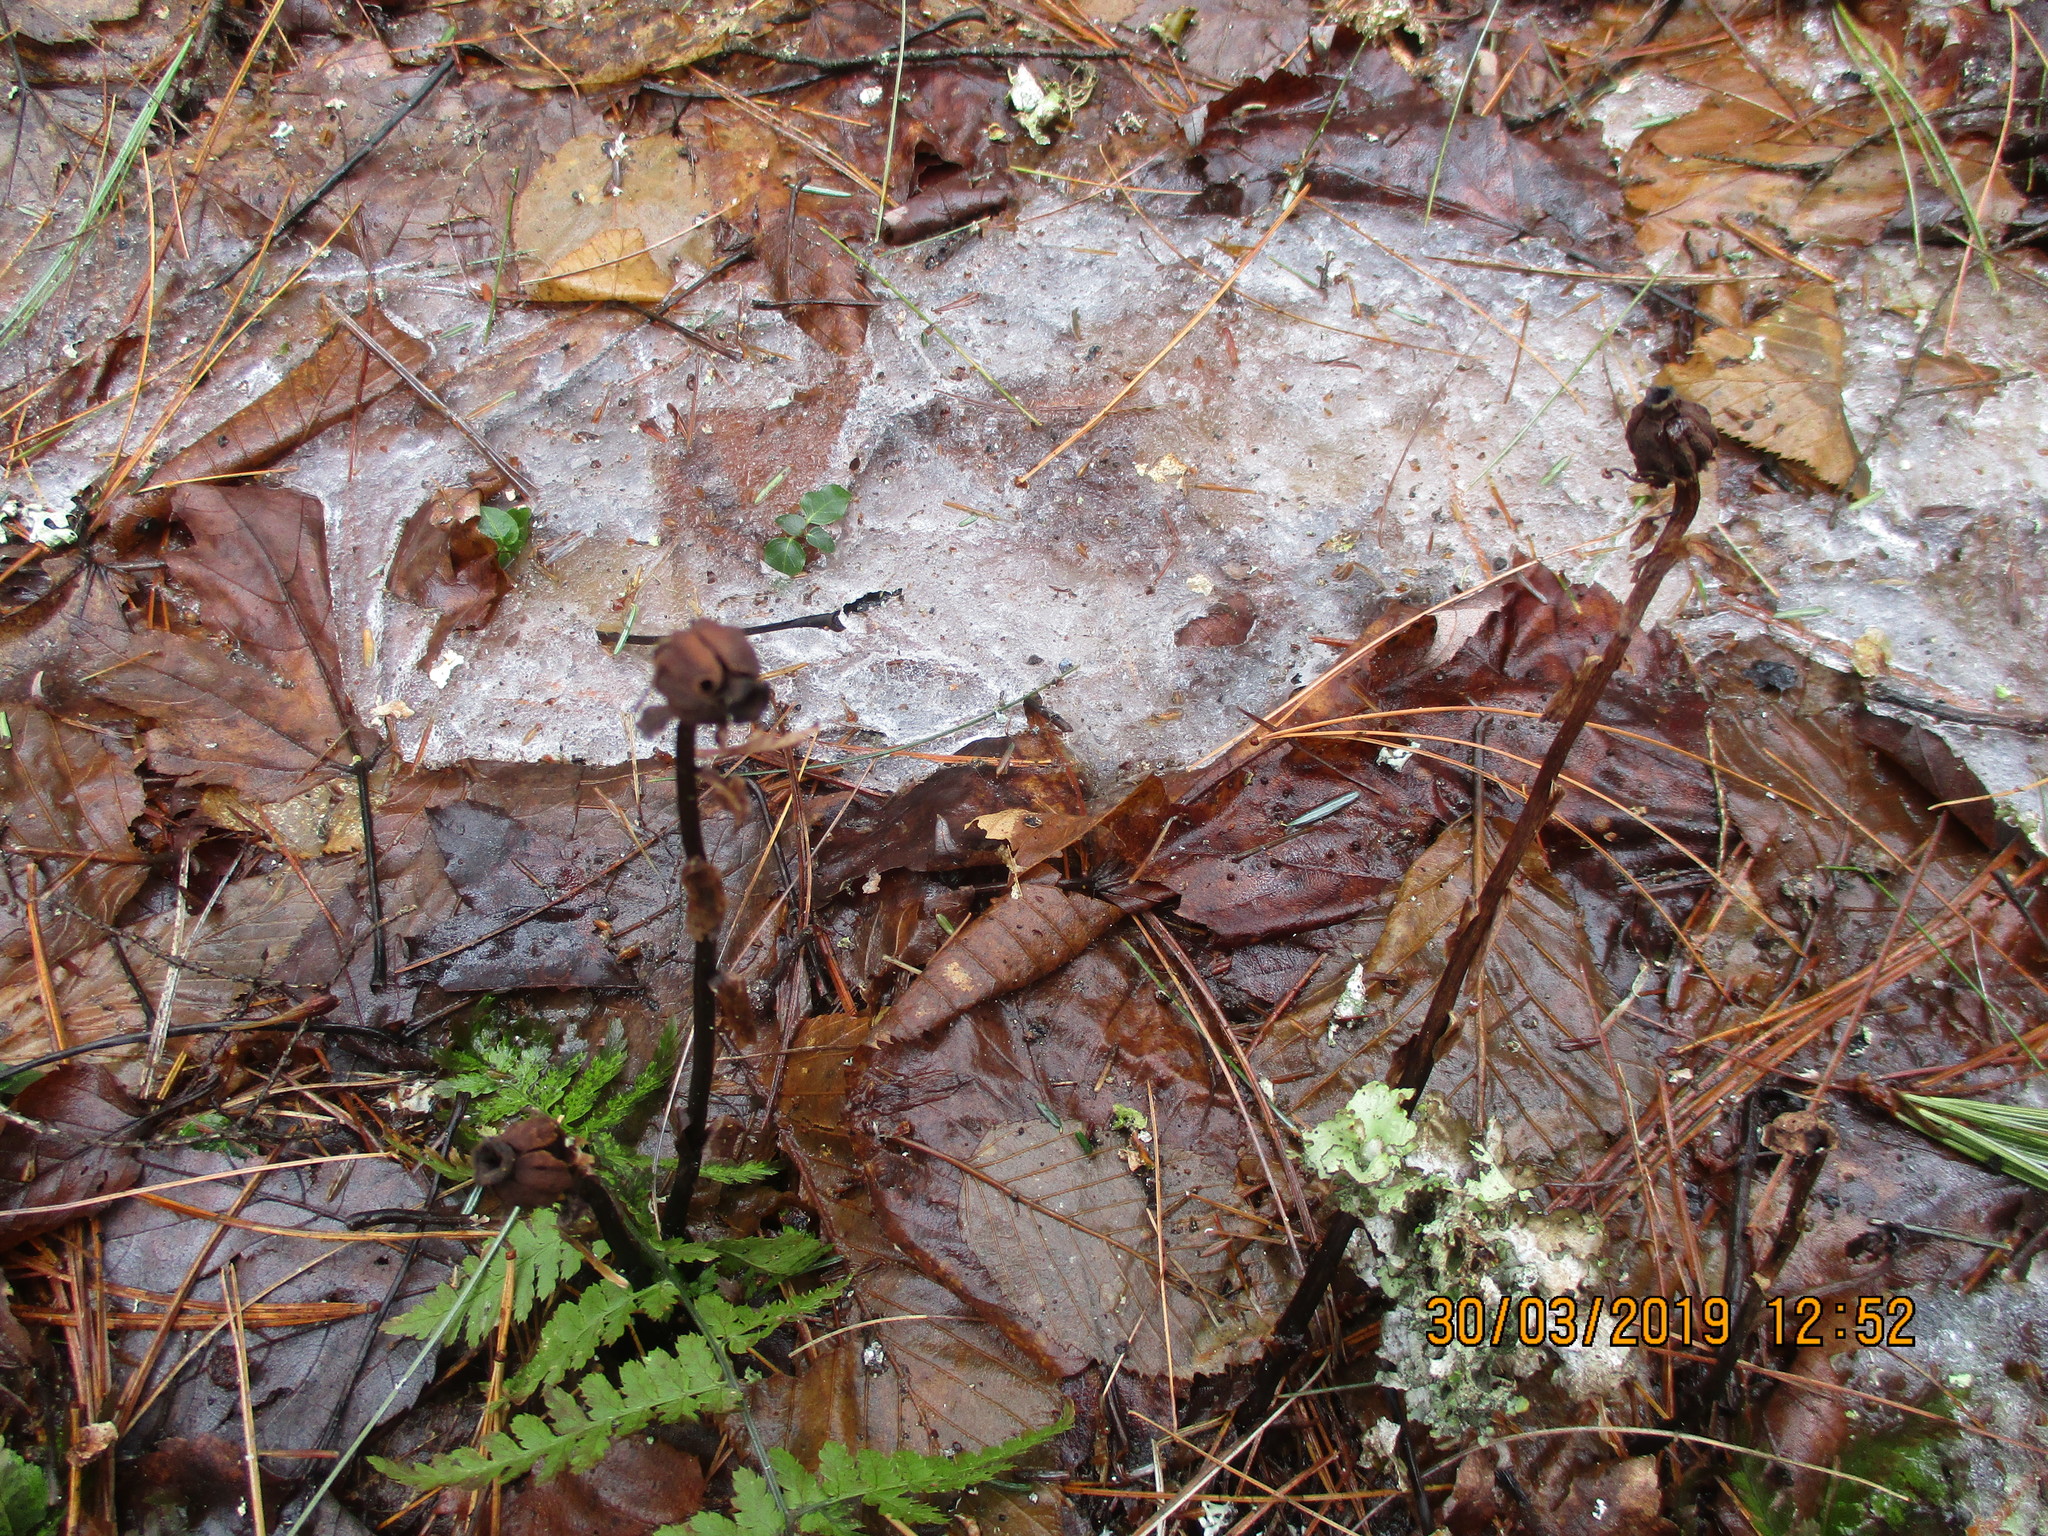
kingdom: Plantae
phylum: Tracheophyta
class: Magnoliopsida
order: Ericales
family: Ericaceae
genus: Monotropa
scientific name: Monotropa uniflora
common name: Convulsion root
